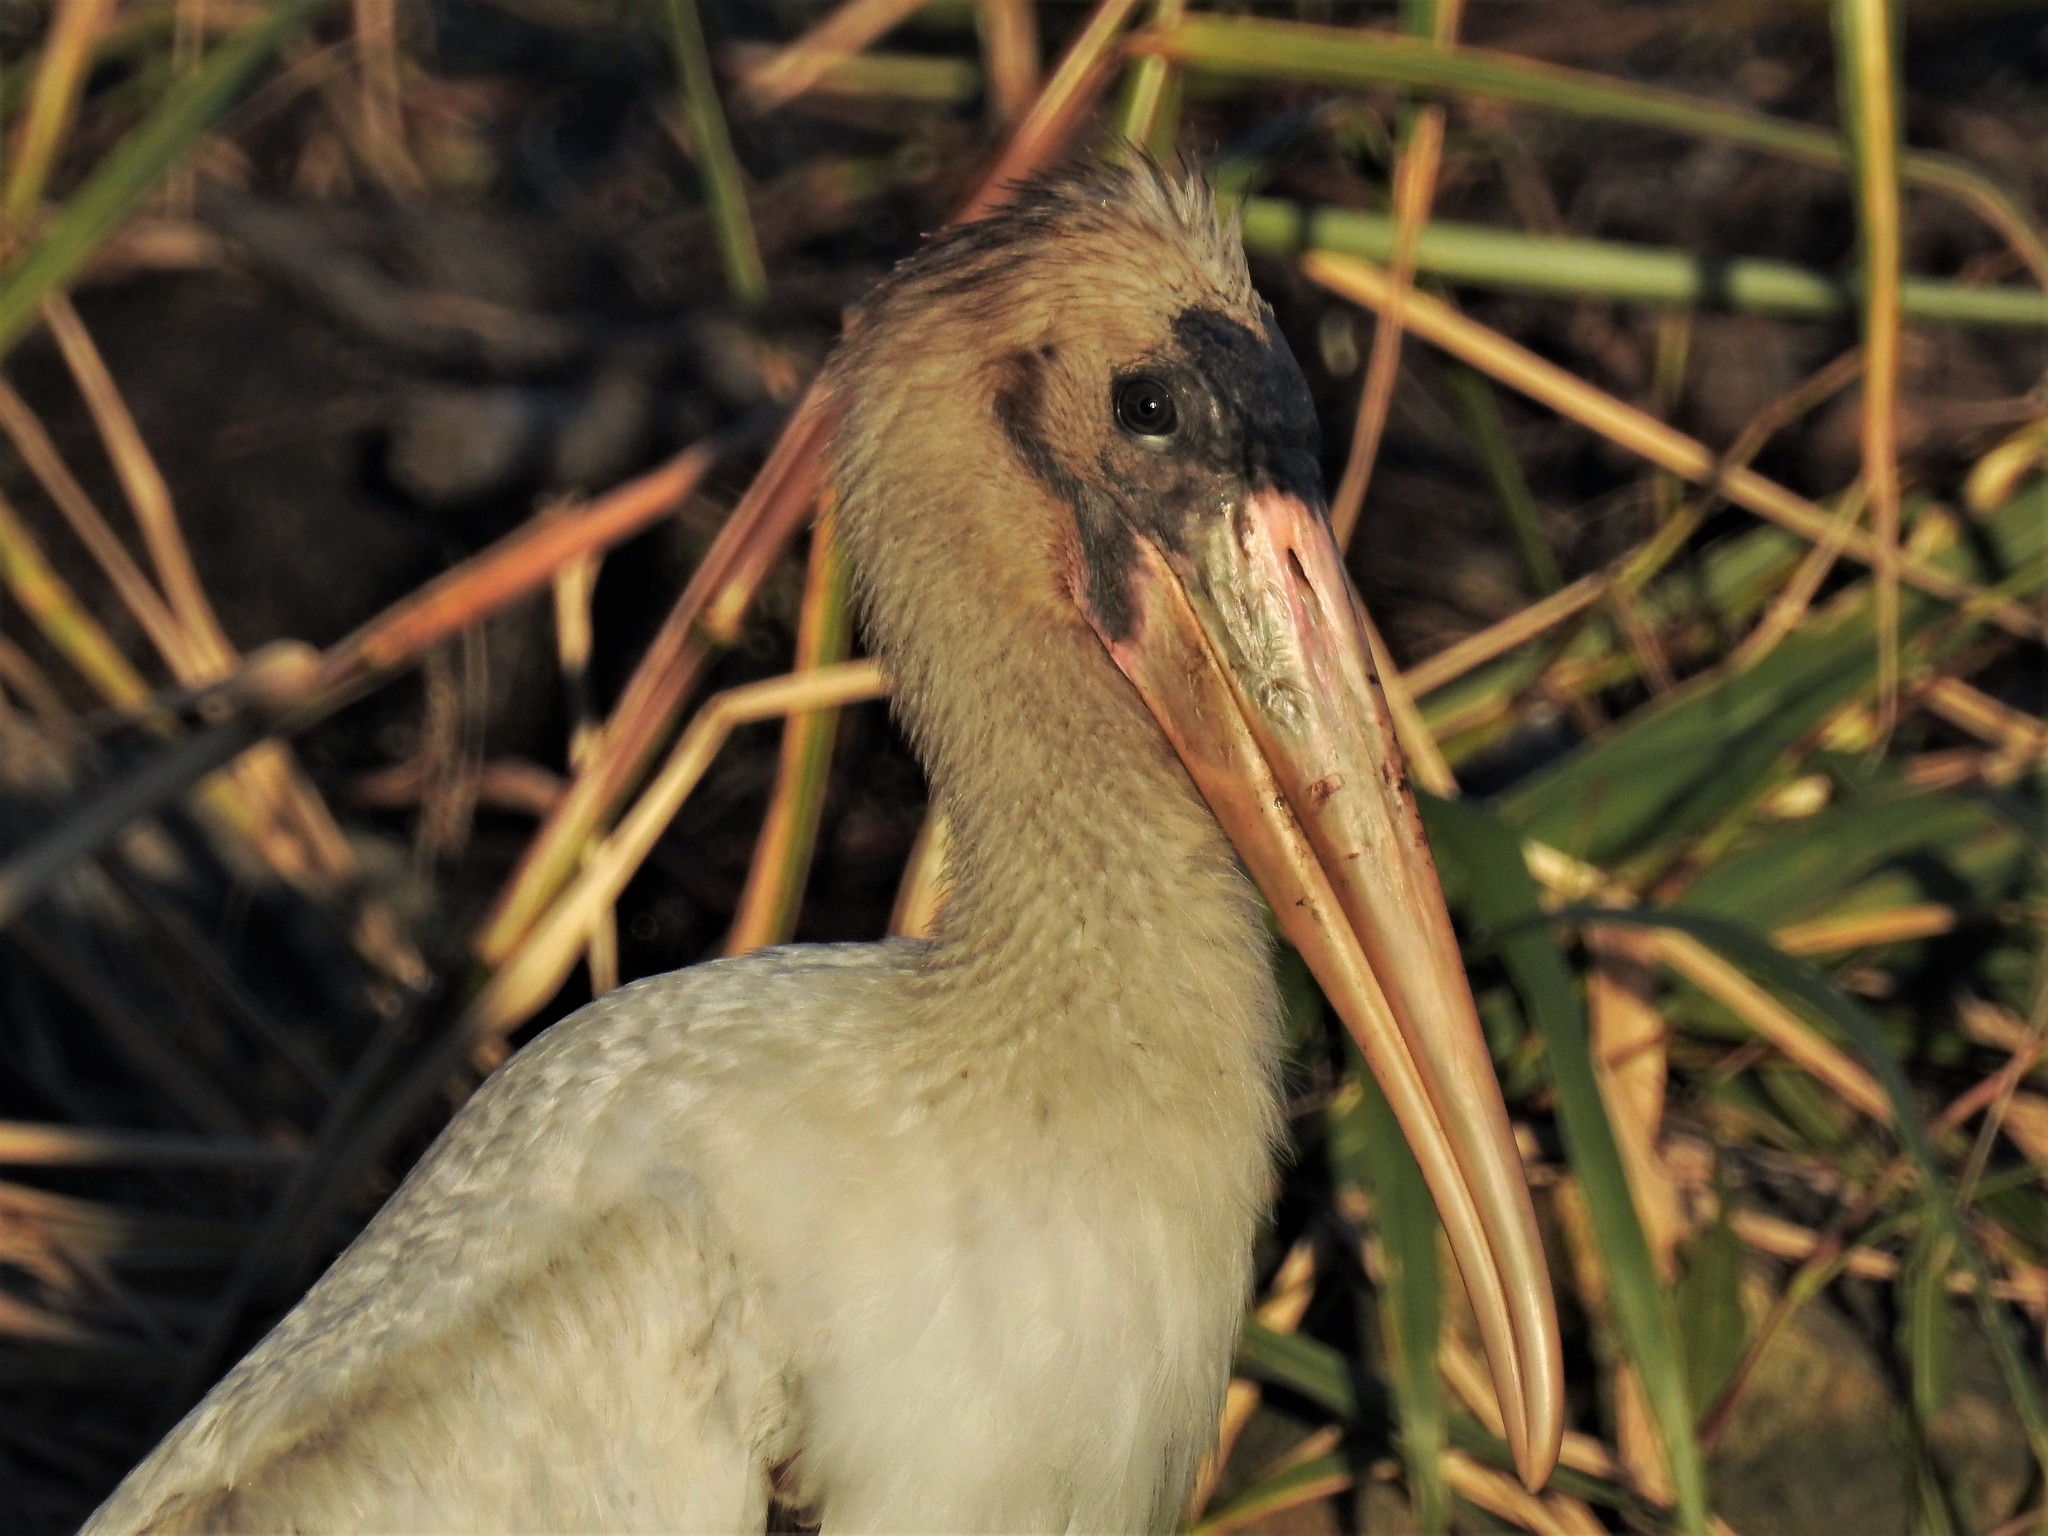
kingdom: Animalia
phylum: Chordata
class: Aves
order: Ciconiiformes
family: Ciconiidae
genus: Mycteria
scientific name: Mycteria americana
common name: Wood stork
